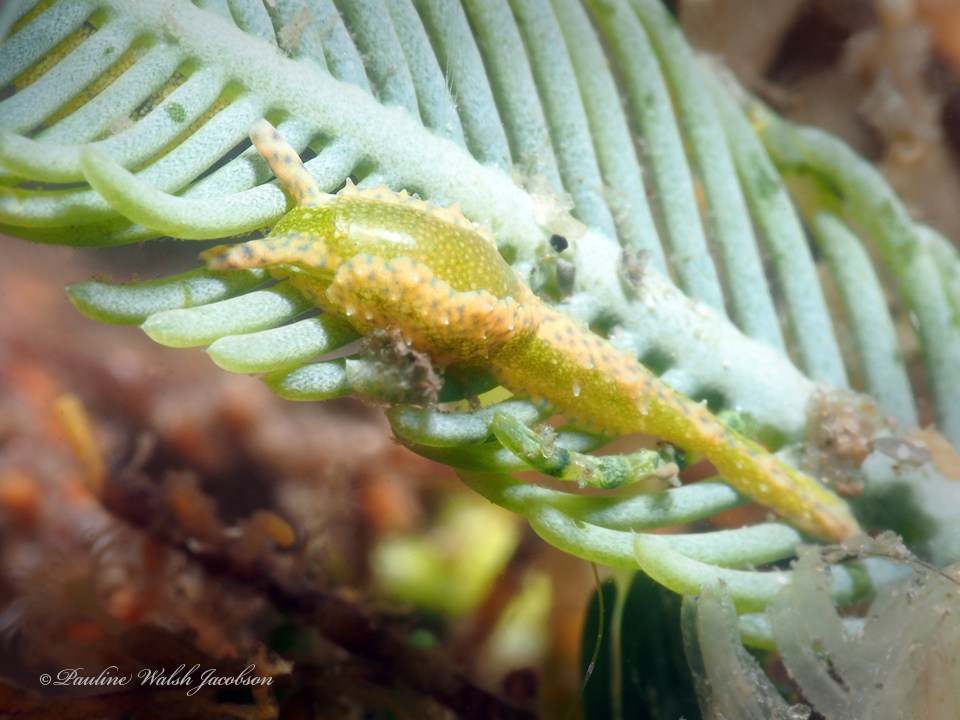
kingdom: Animalia
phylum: Mollusca
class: Gastropoda
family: Oxynoidae
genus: Oxynoe
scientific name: Oxynoe antillarum
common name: Antilles oxynoe
